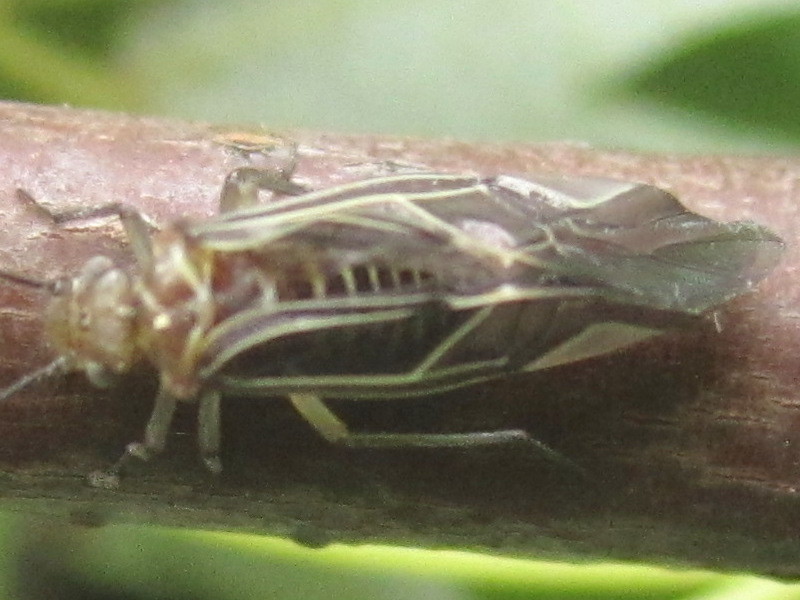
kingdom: Animalia
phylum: Arthropoda
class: Insecta
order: Psocodea
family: Psocidae
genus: Cerastipsocus
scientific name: Cerastipsocus venosus
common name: Tree cattle
